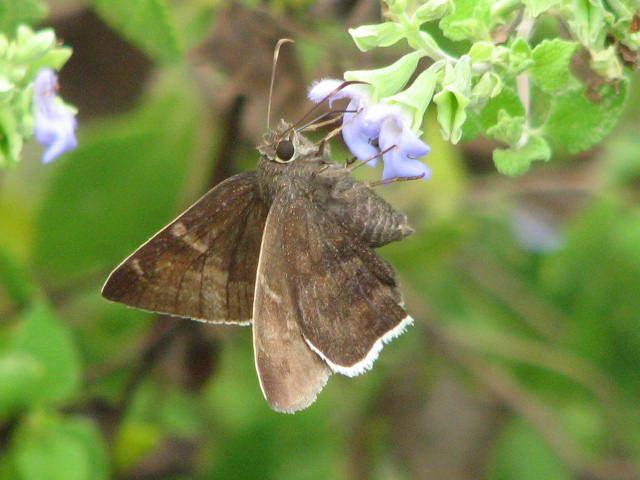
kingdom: Animalia
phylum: Arthropoda
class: Insecta
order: Lepidoptera
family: Hesperiidae
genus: Achalarus
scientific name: Achalarus Murgaria albociliatus
